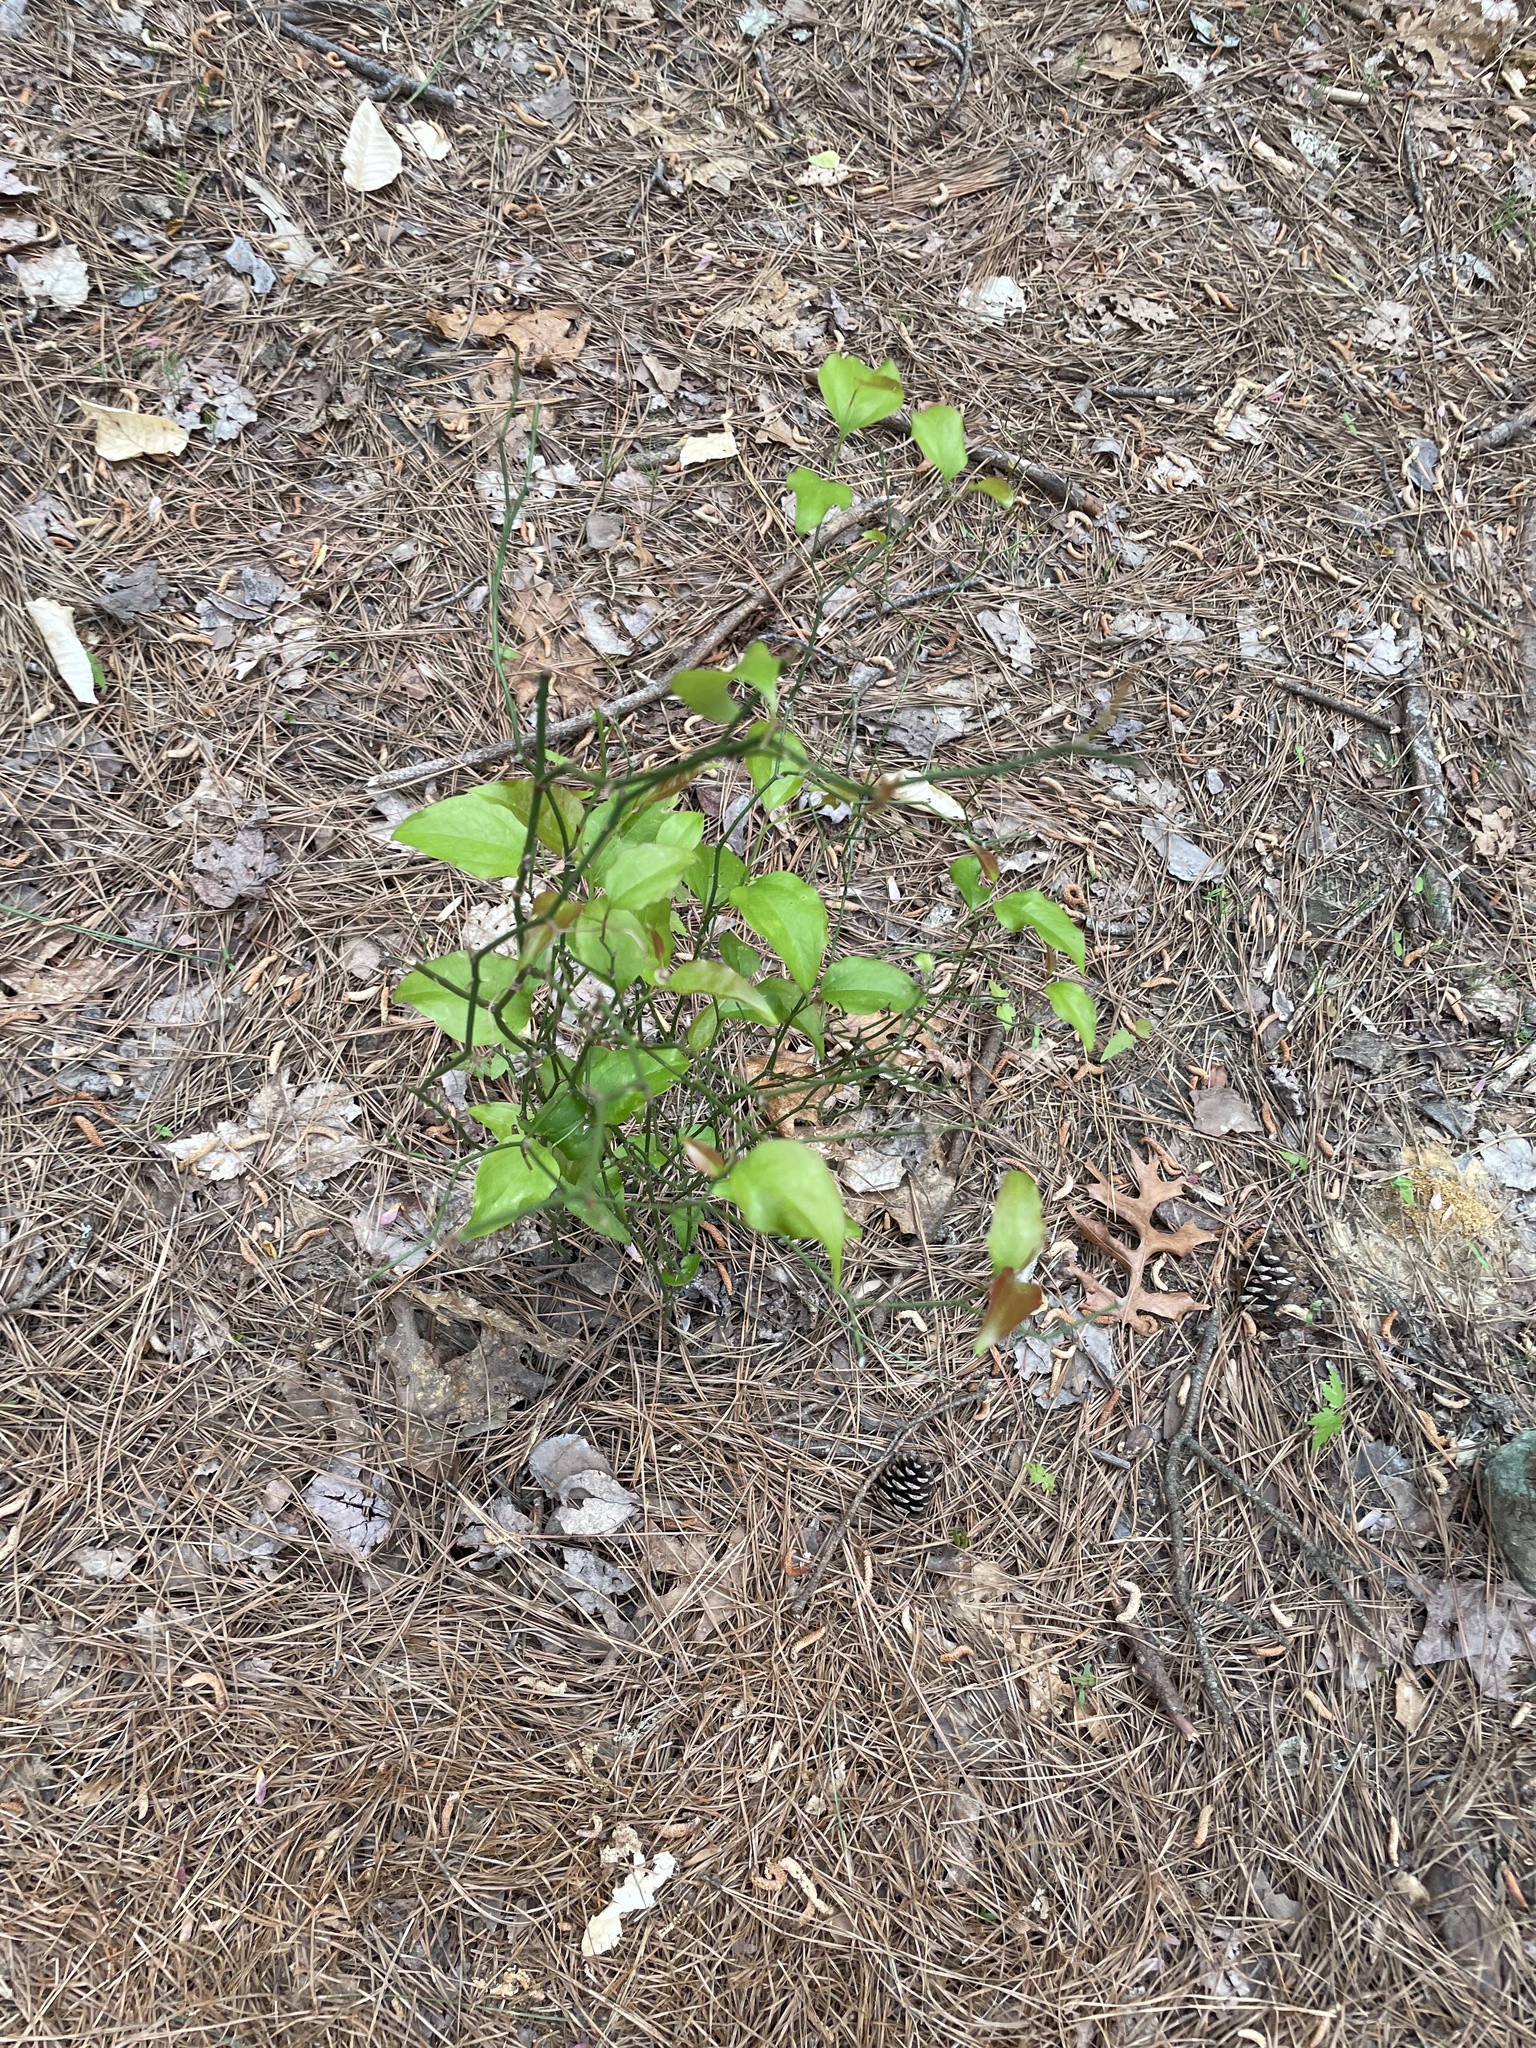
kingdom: Plantae
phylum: Tracheophyta
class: Liliopsida
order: Liliales
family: Smilacaceae
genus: Smilax
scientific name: Smilax rotundifolia
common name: Bullbriar
